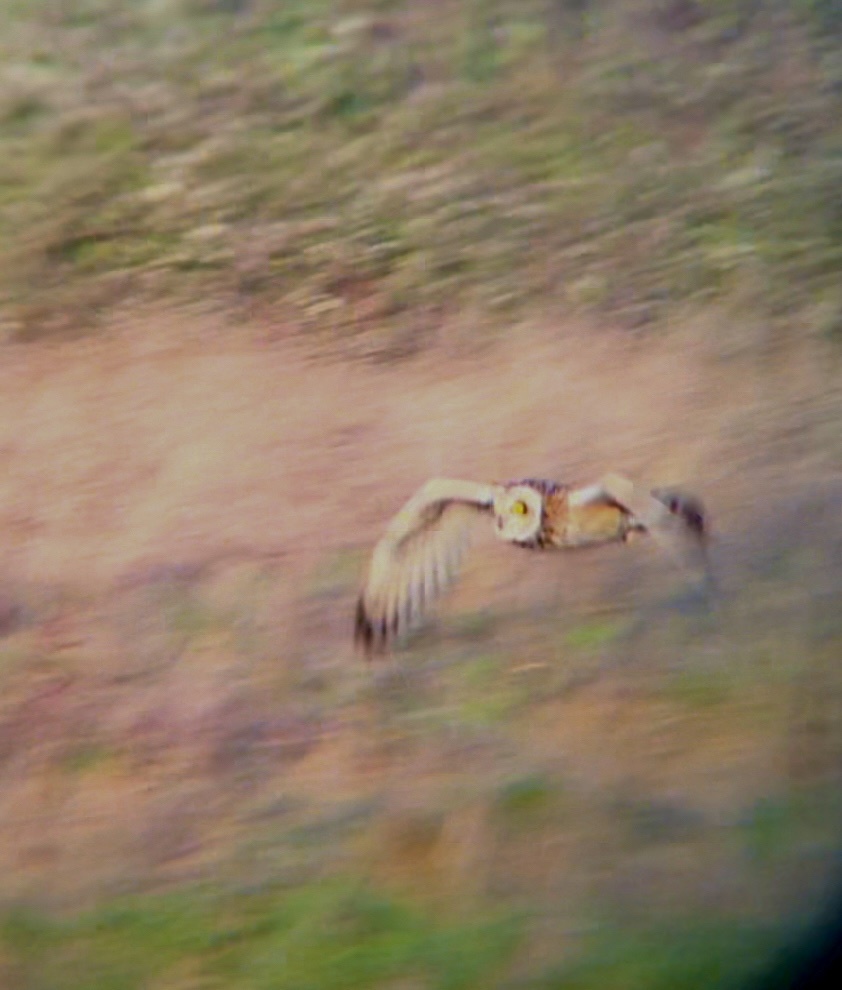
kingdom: Animalia
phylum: Chordata
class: Aves
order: Strigiformes
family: Strigidae
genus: Asio
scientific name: Asio flammeus
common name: Short-eared owl
